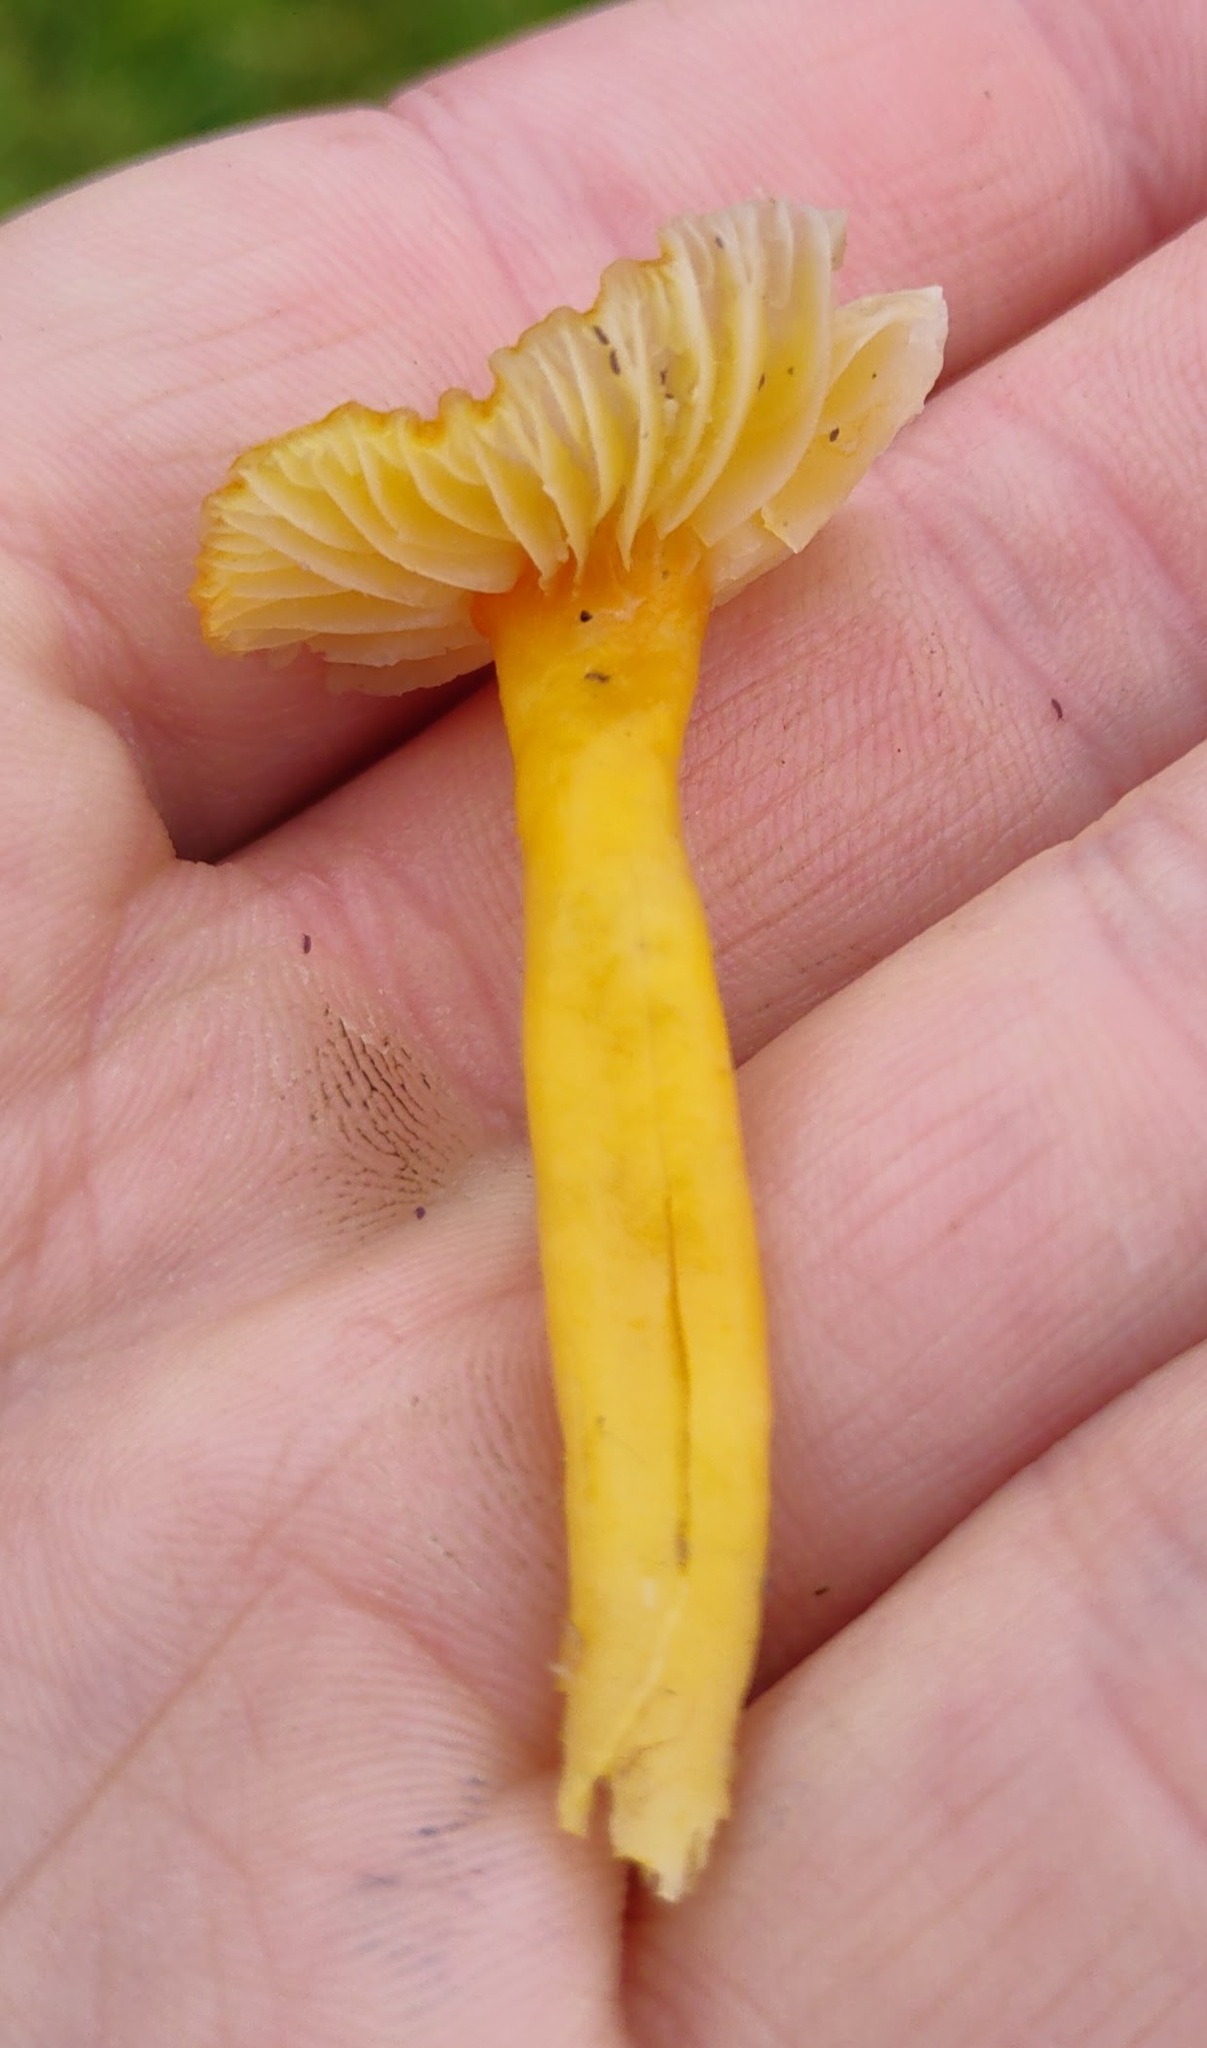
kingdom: Fungi
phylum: Basidiomycota
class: Agaricomycetes
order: Agaricales
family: Hygrophoraceae
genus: Hygrocybe
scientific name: Hygrocybe ceracea
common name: Butter waxcap
